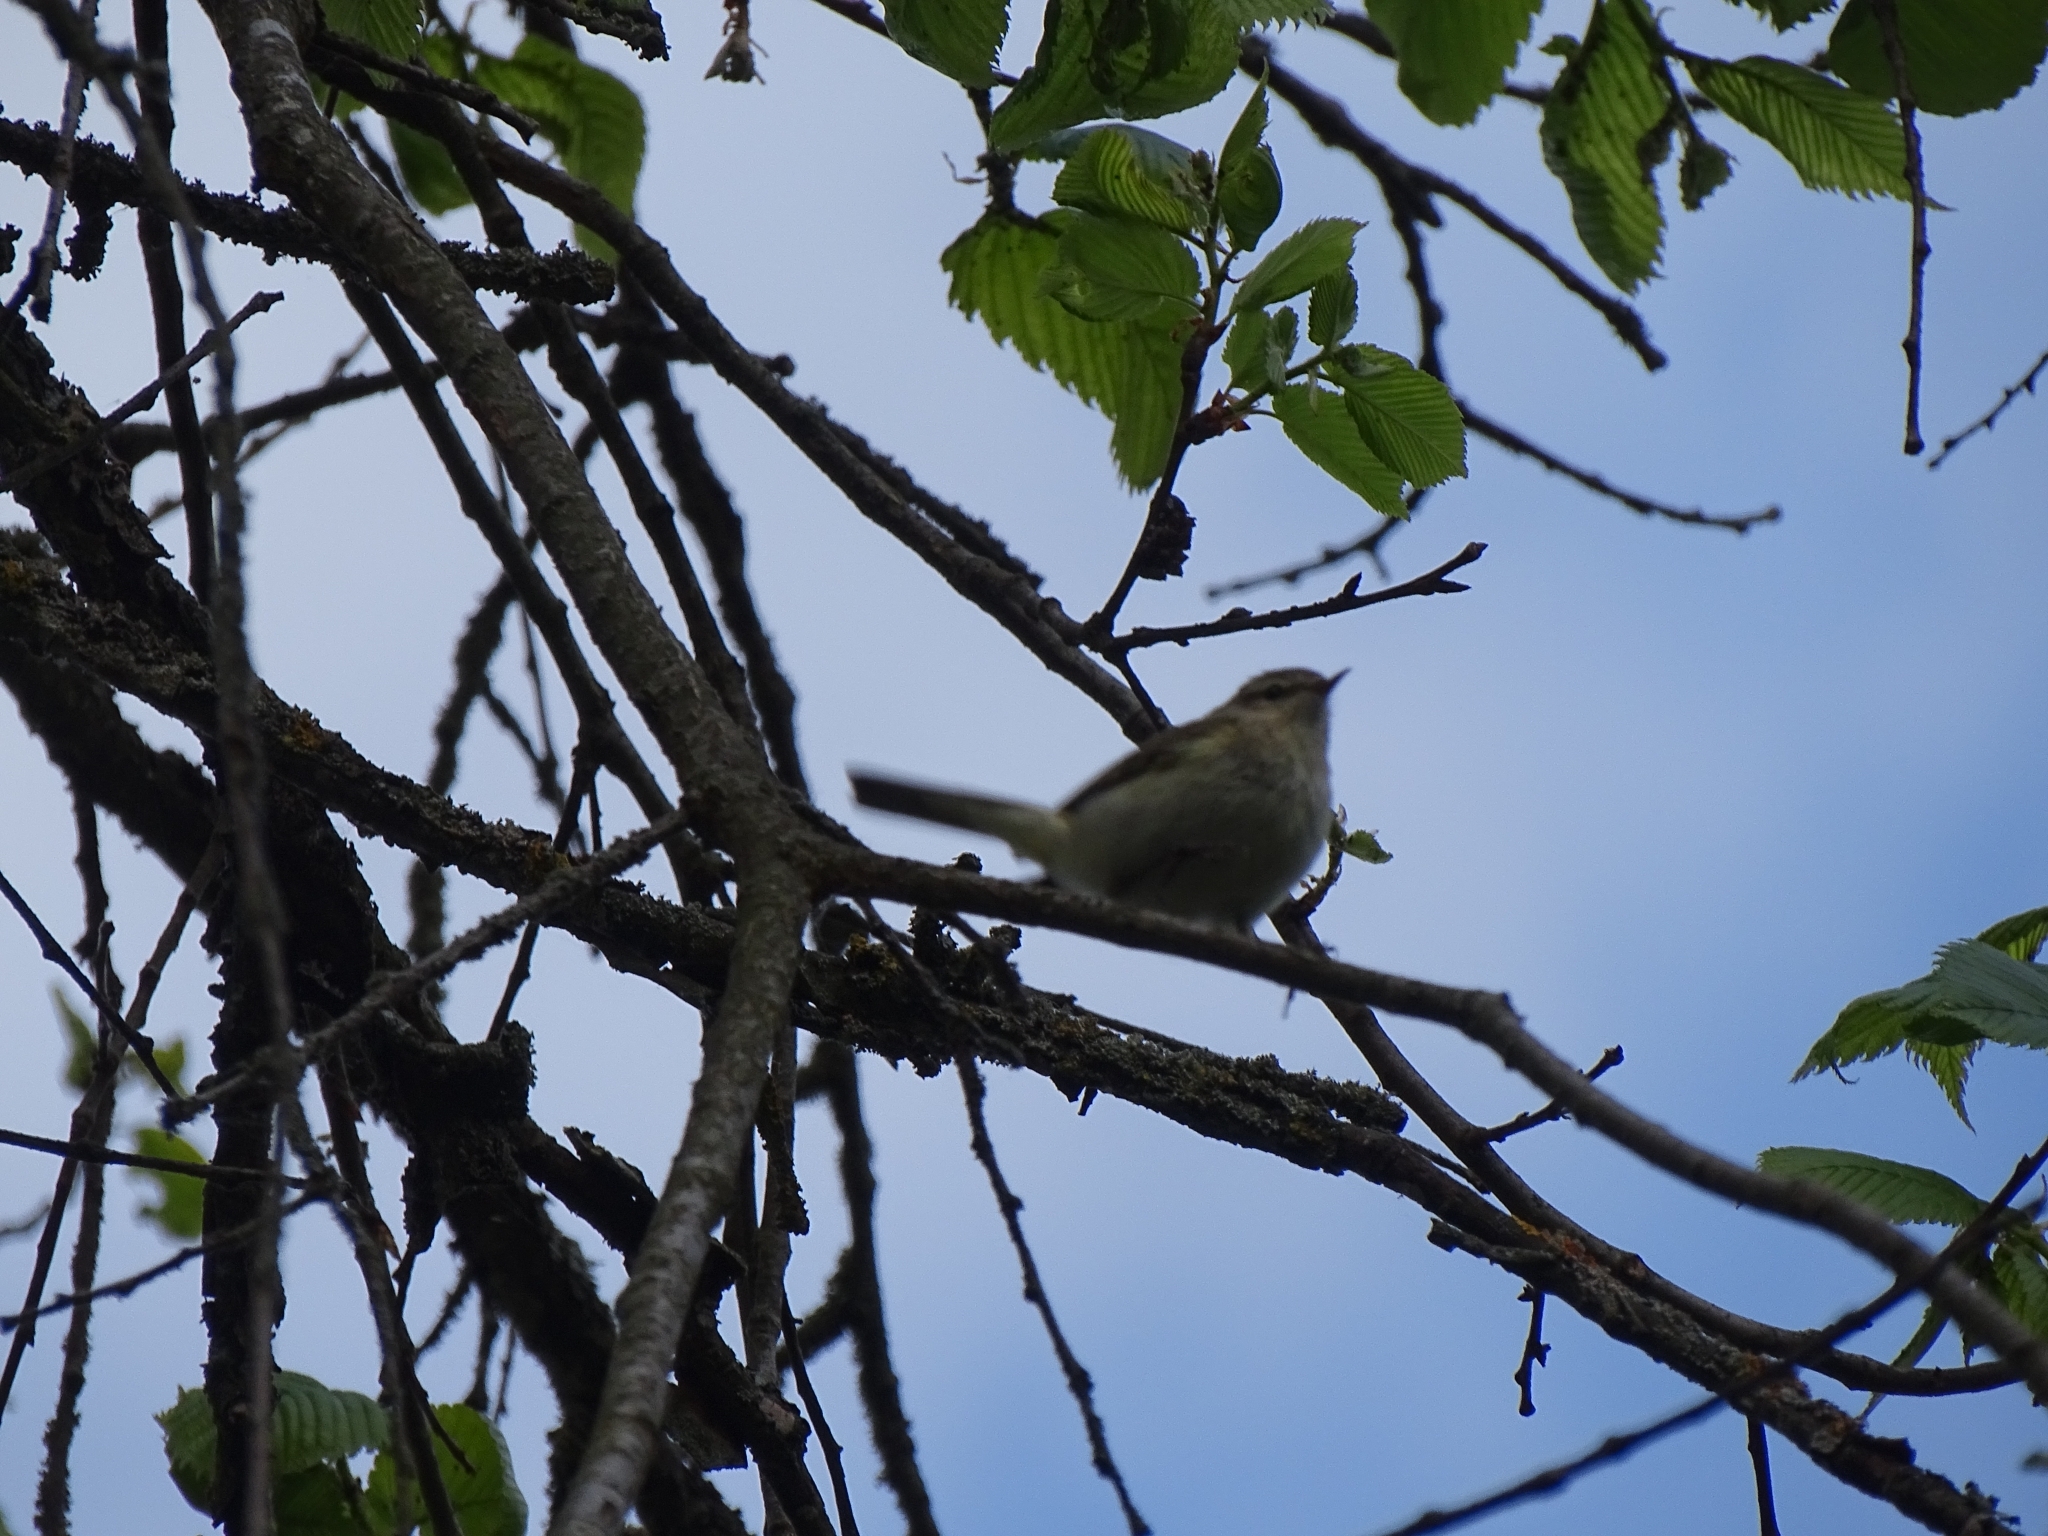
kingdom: Animalia
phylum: Chordata
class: Aves
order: Passeriformes
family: Phylloscopidae
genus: Phylloscopus
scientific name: Phylloscopus collybita
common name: Common chiffchaff
